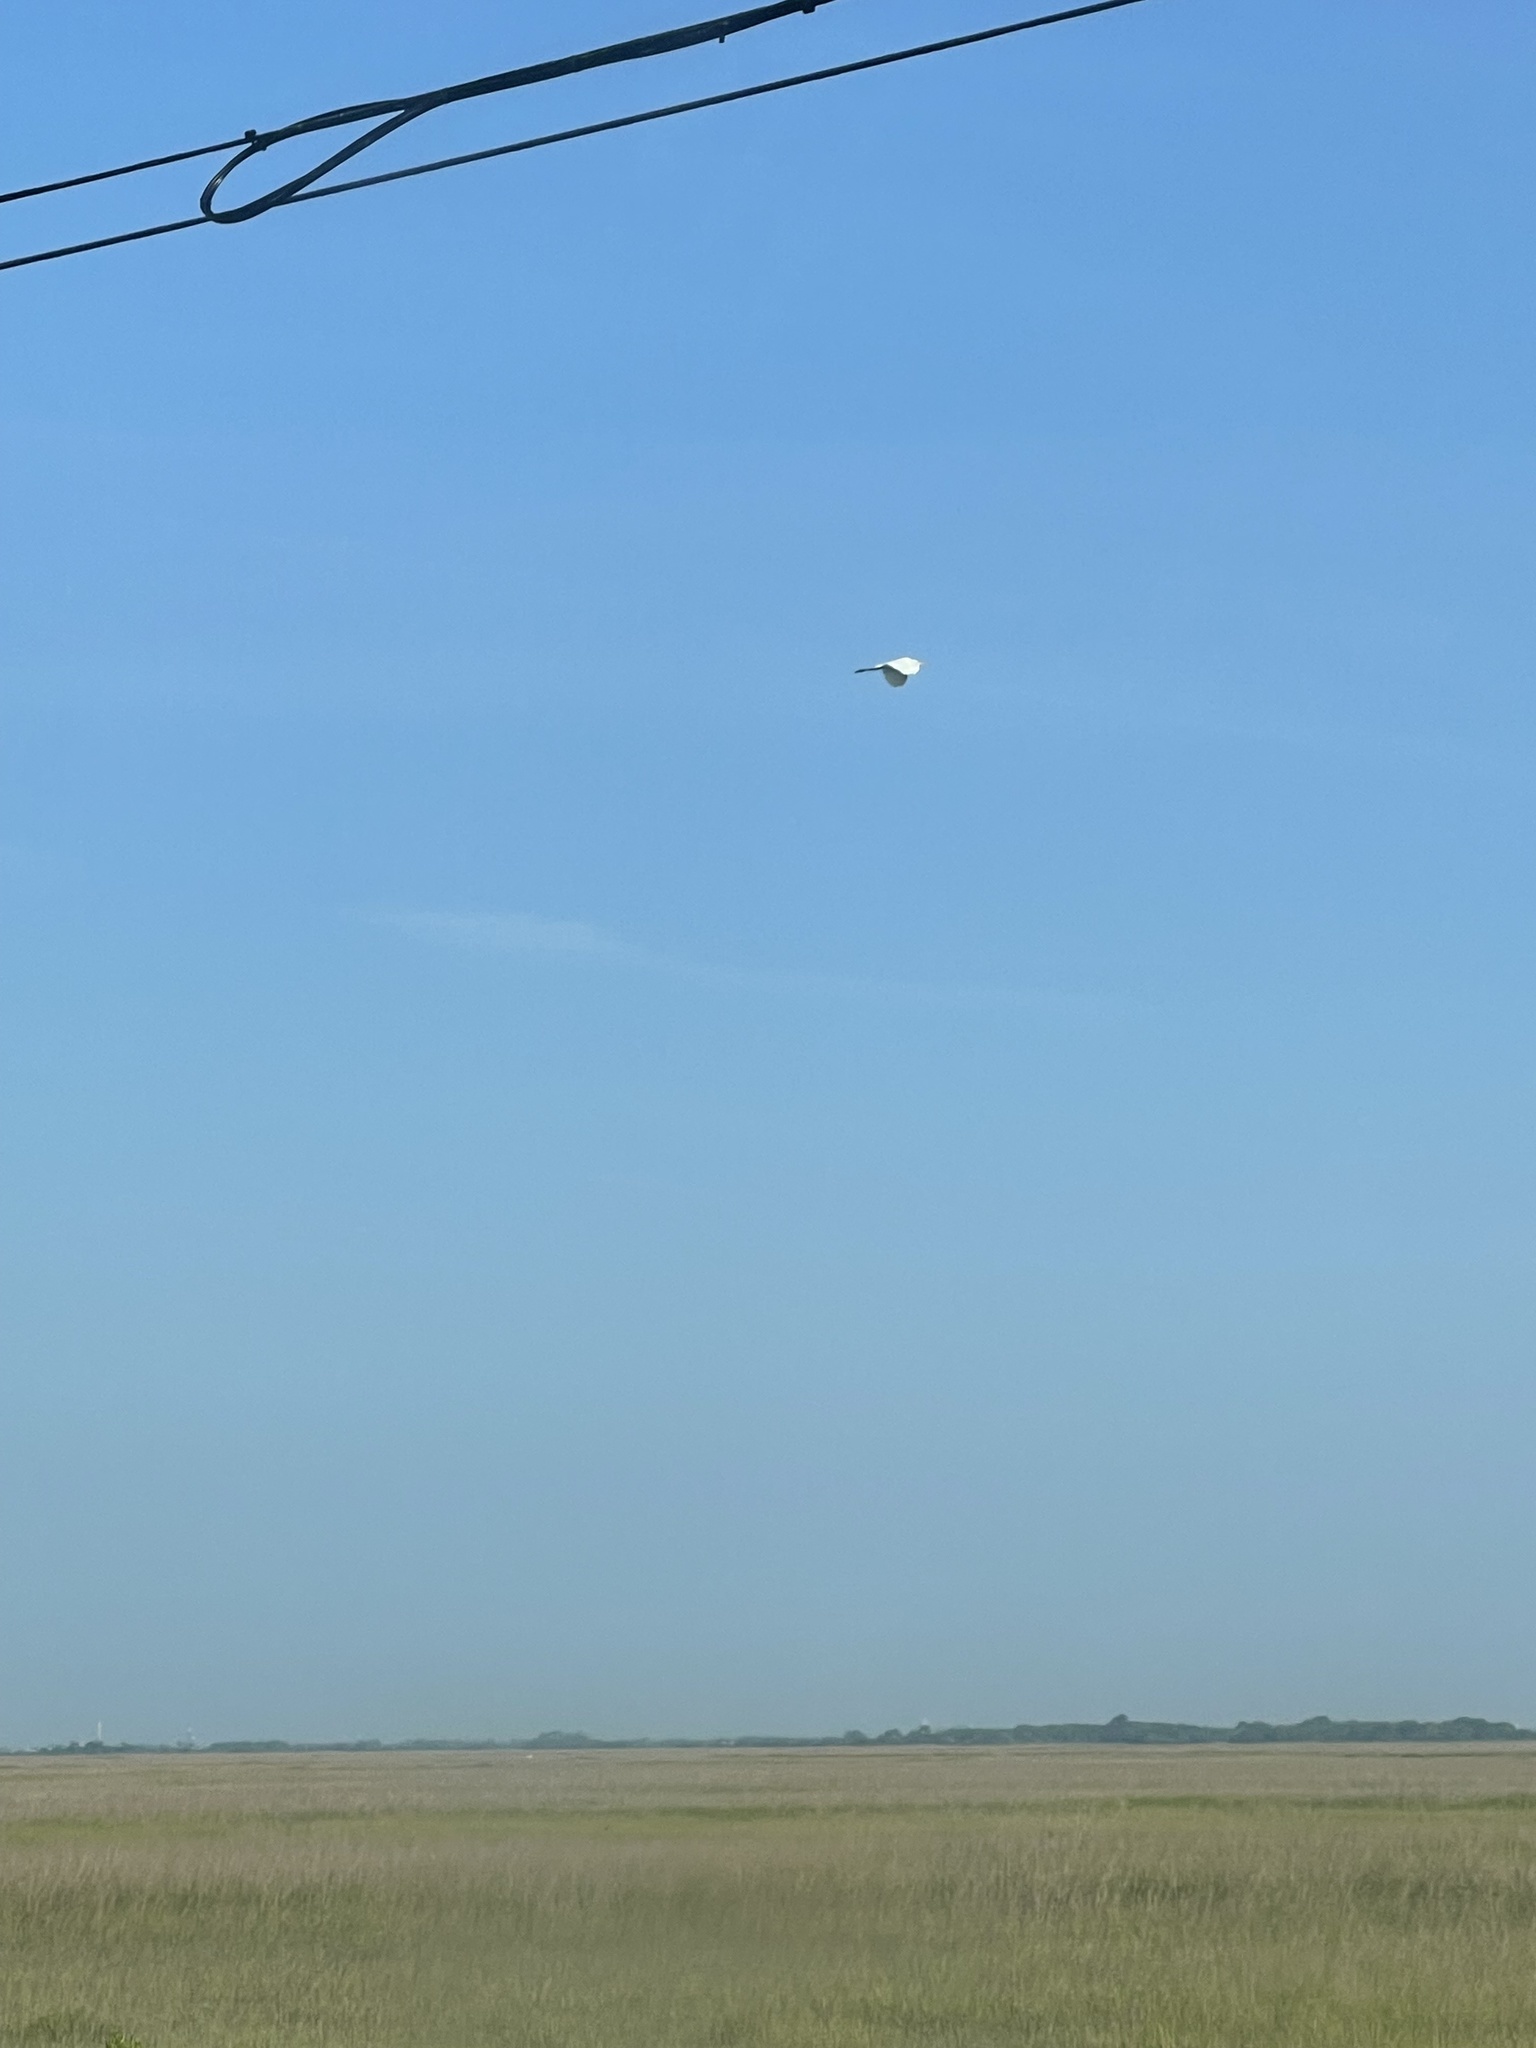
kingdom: Animalia
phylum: Chordata
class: Aves
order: Pelecaniformes
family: Ardeidae
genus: Ardea
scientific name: Ardea alba
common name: Great egret
